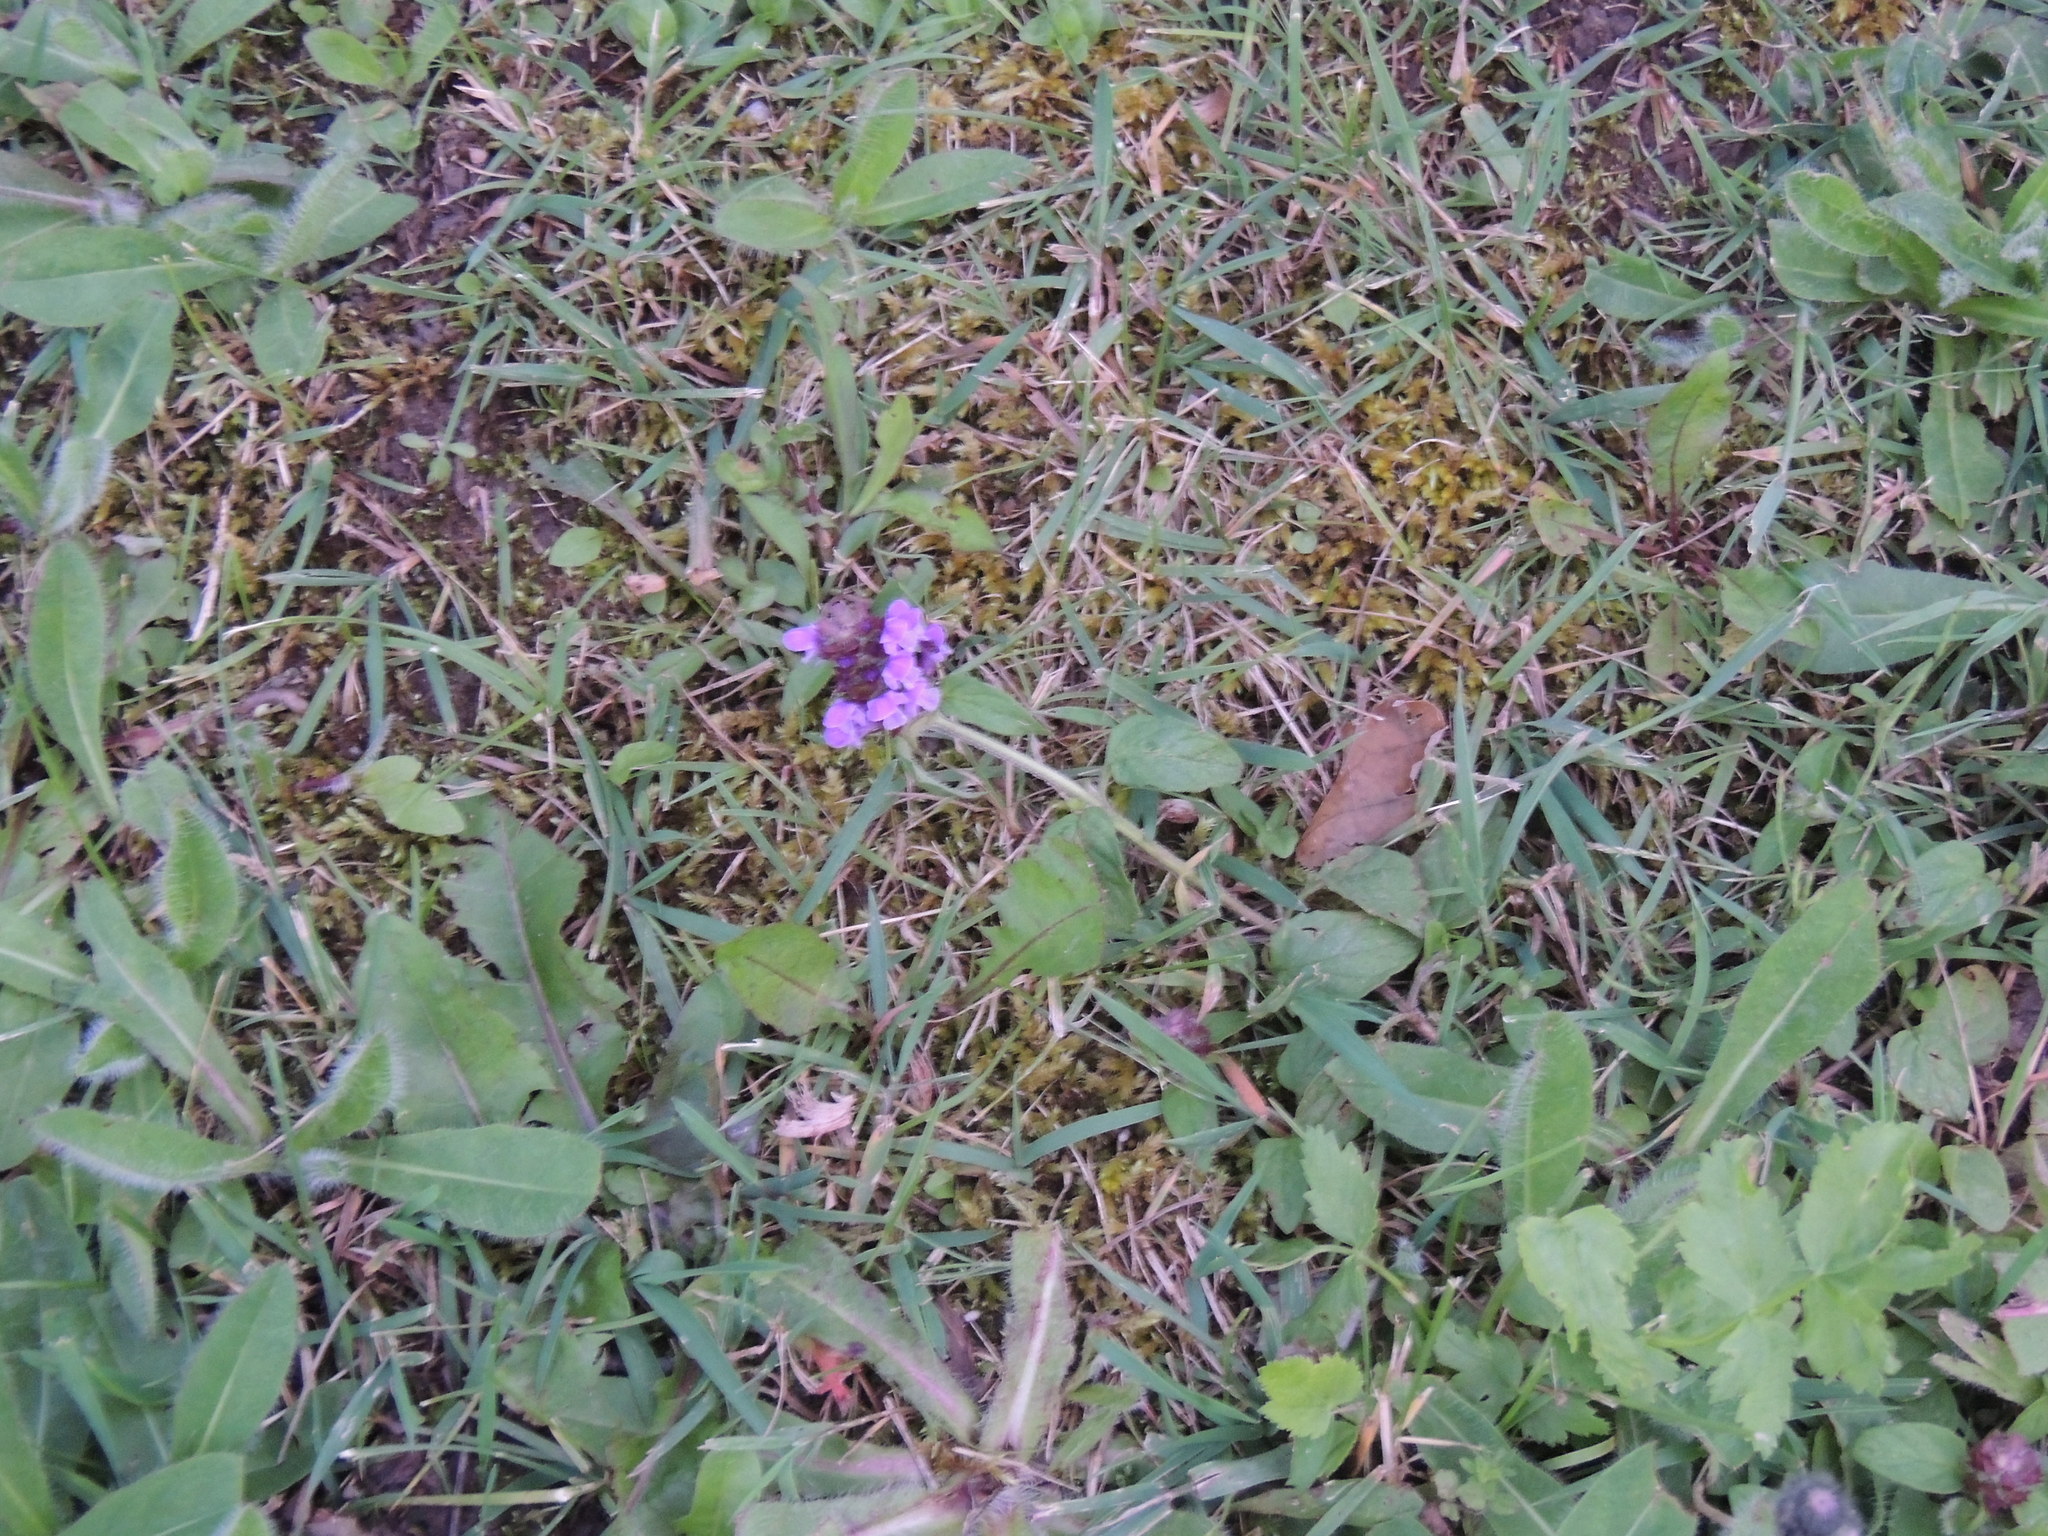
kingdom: Plantae
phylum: Tracheophyta
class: Magnoliopsida
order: Lamiales
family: Lamiaceae
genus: Prunella
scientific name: Prunella vulgaris
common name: Heal-all
